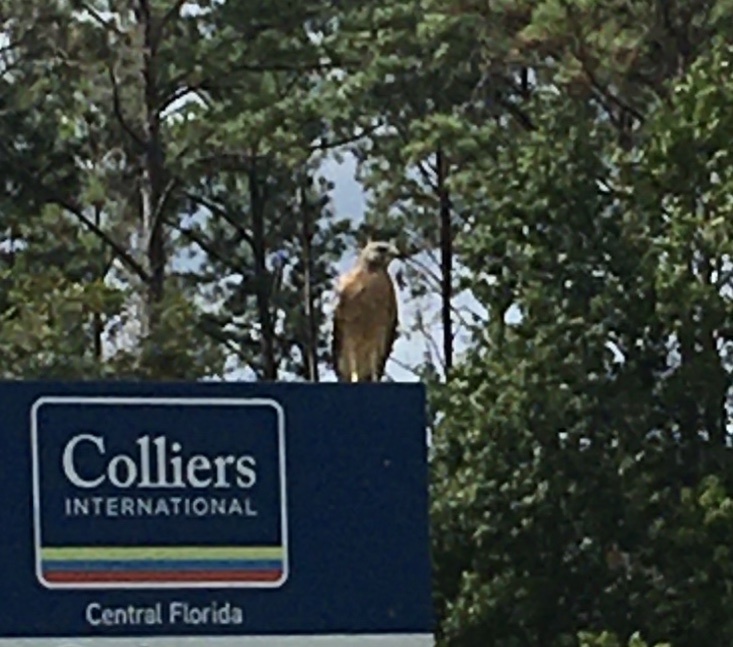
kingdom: Animalia
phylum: Chordata
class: Aves
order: Accipitriformes
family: Accipitridae
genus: Buteo
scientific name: Buteo lineatus
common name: Red-shouldered hawk
